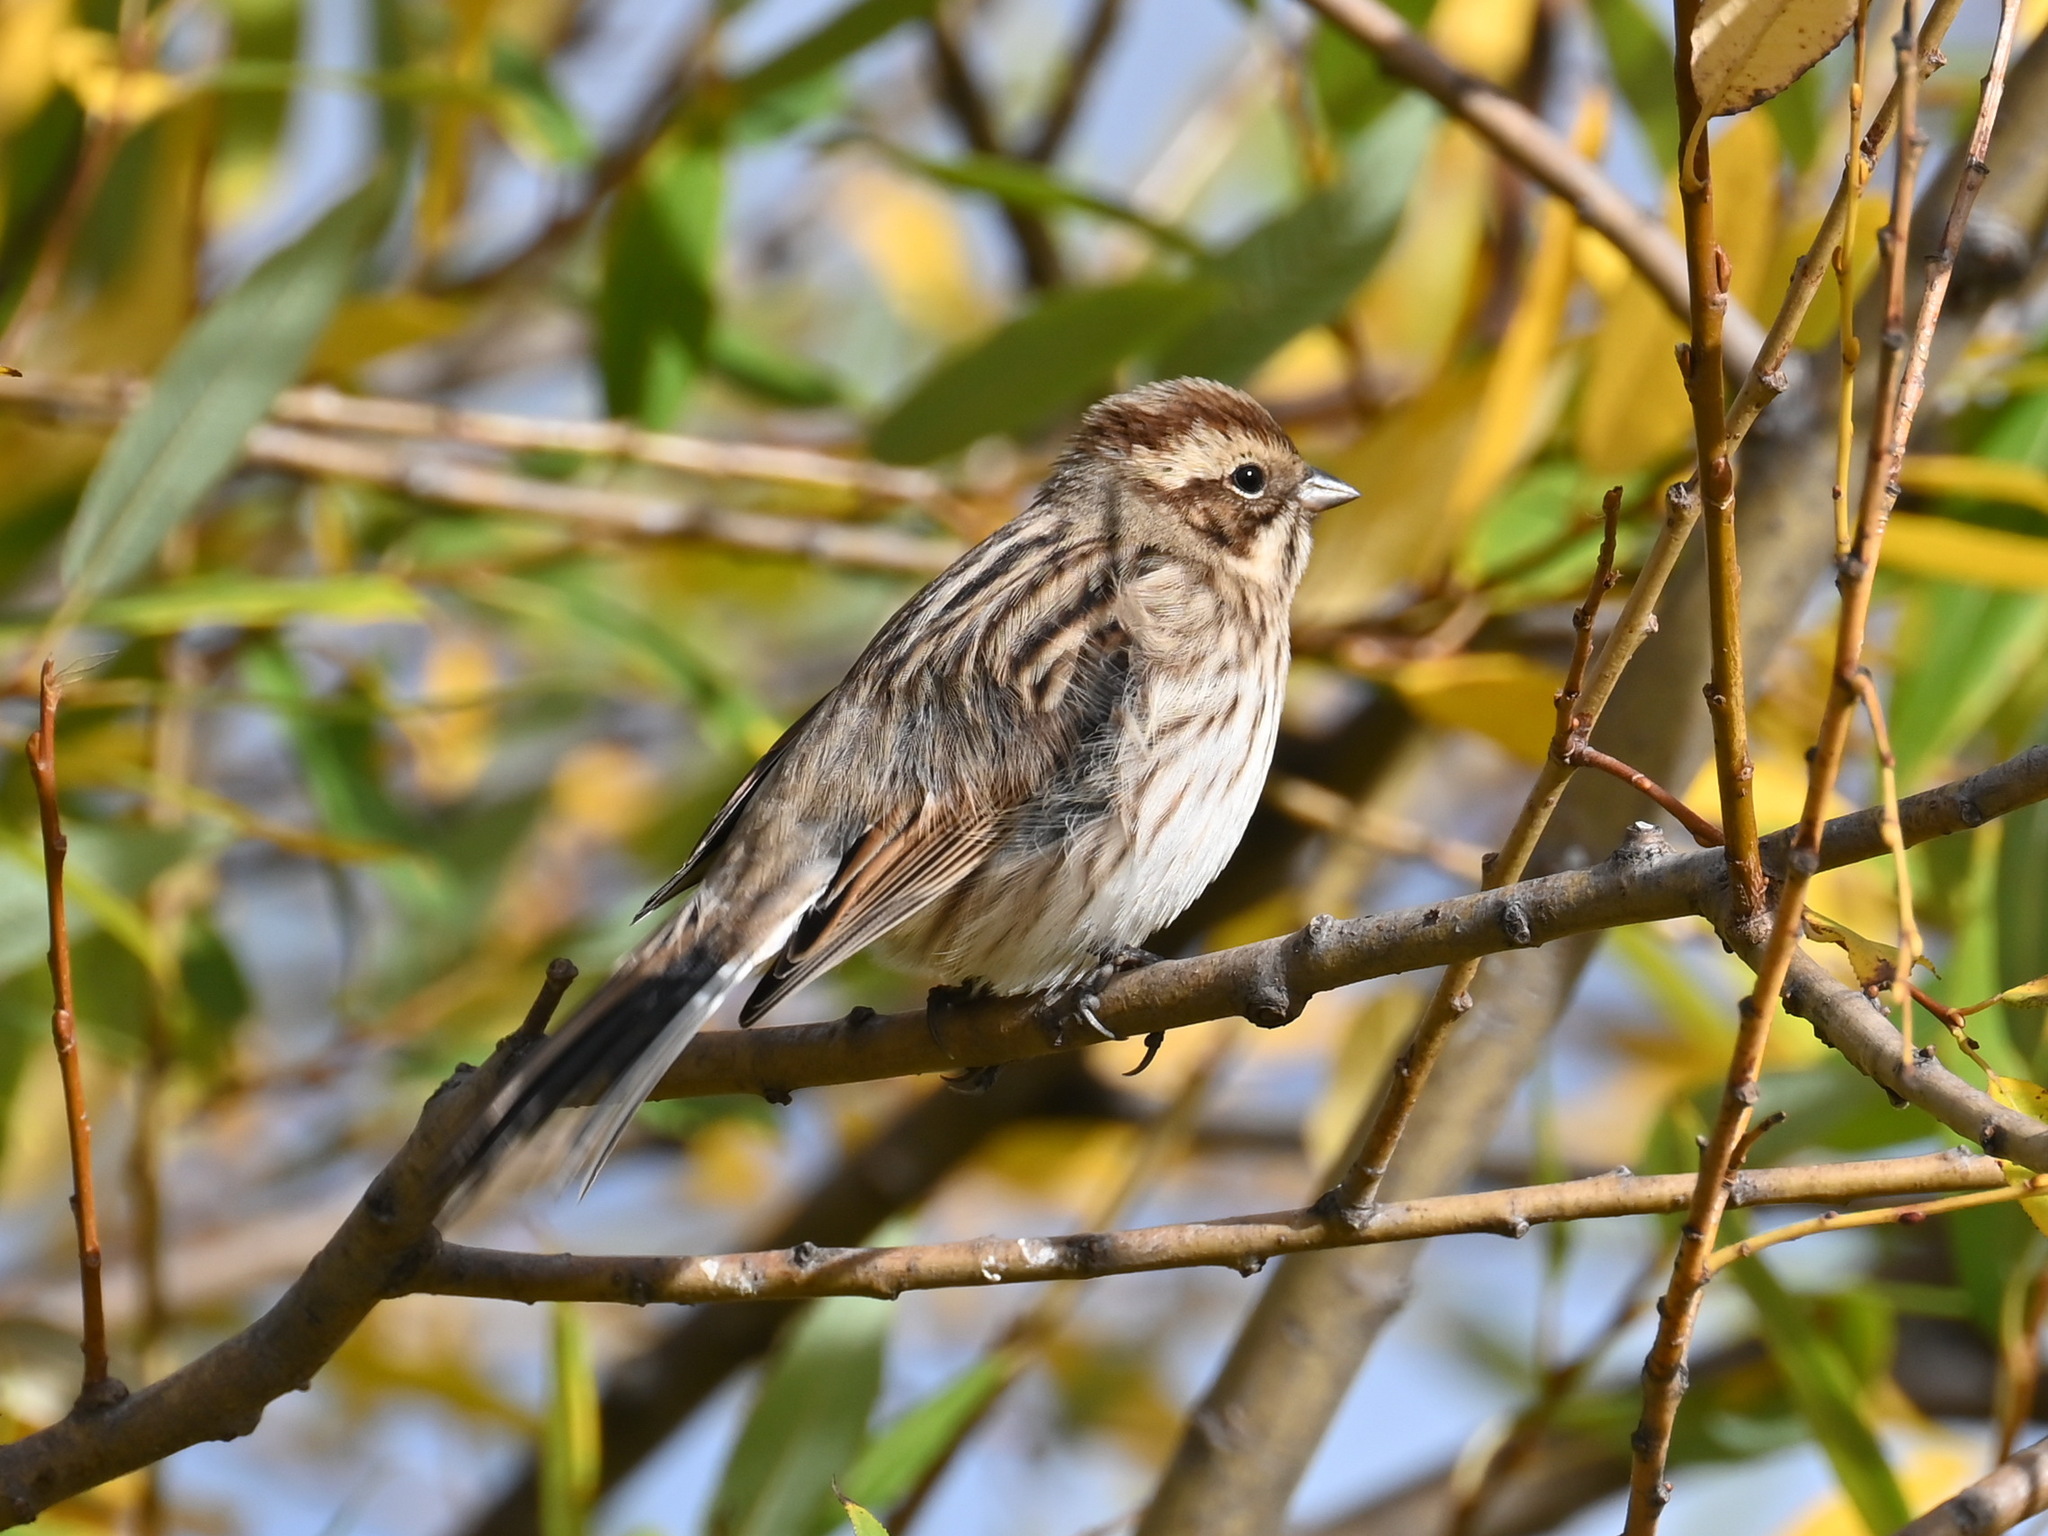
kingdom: Animalia
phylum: Chordata
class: Aves
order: Passeriformes
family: Emberizidae
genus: Emberiza
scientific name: Emberiza schoeniclus
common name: Reed bunting
